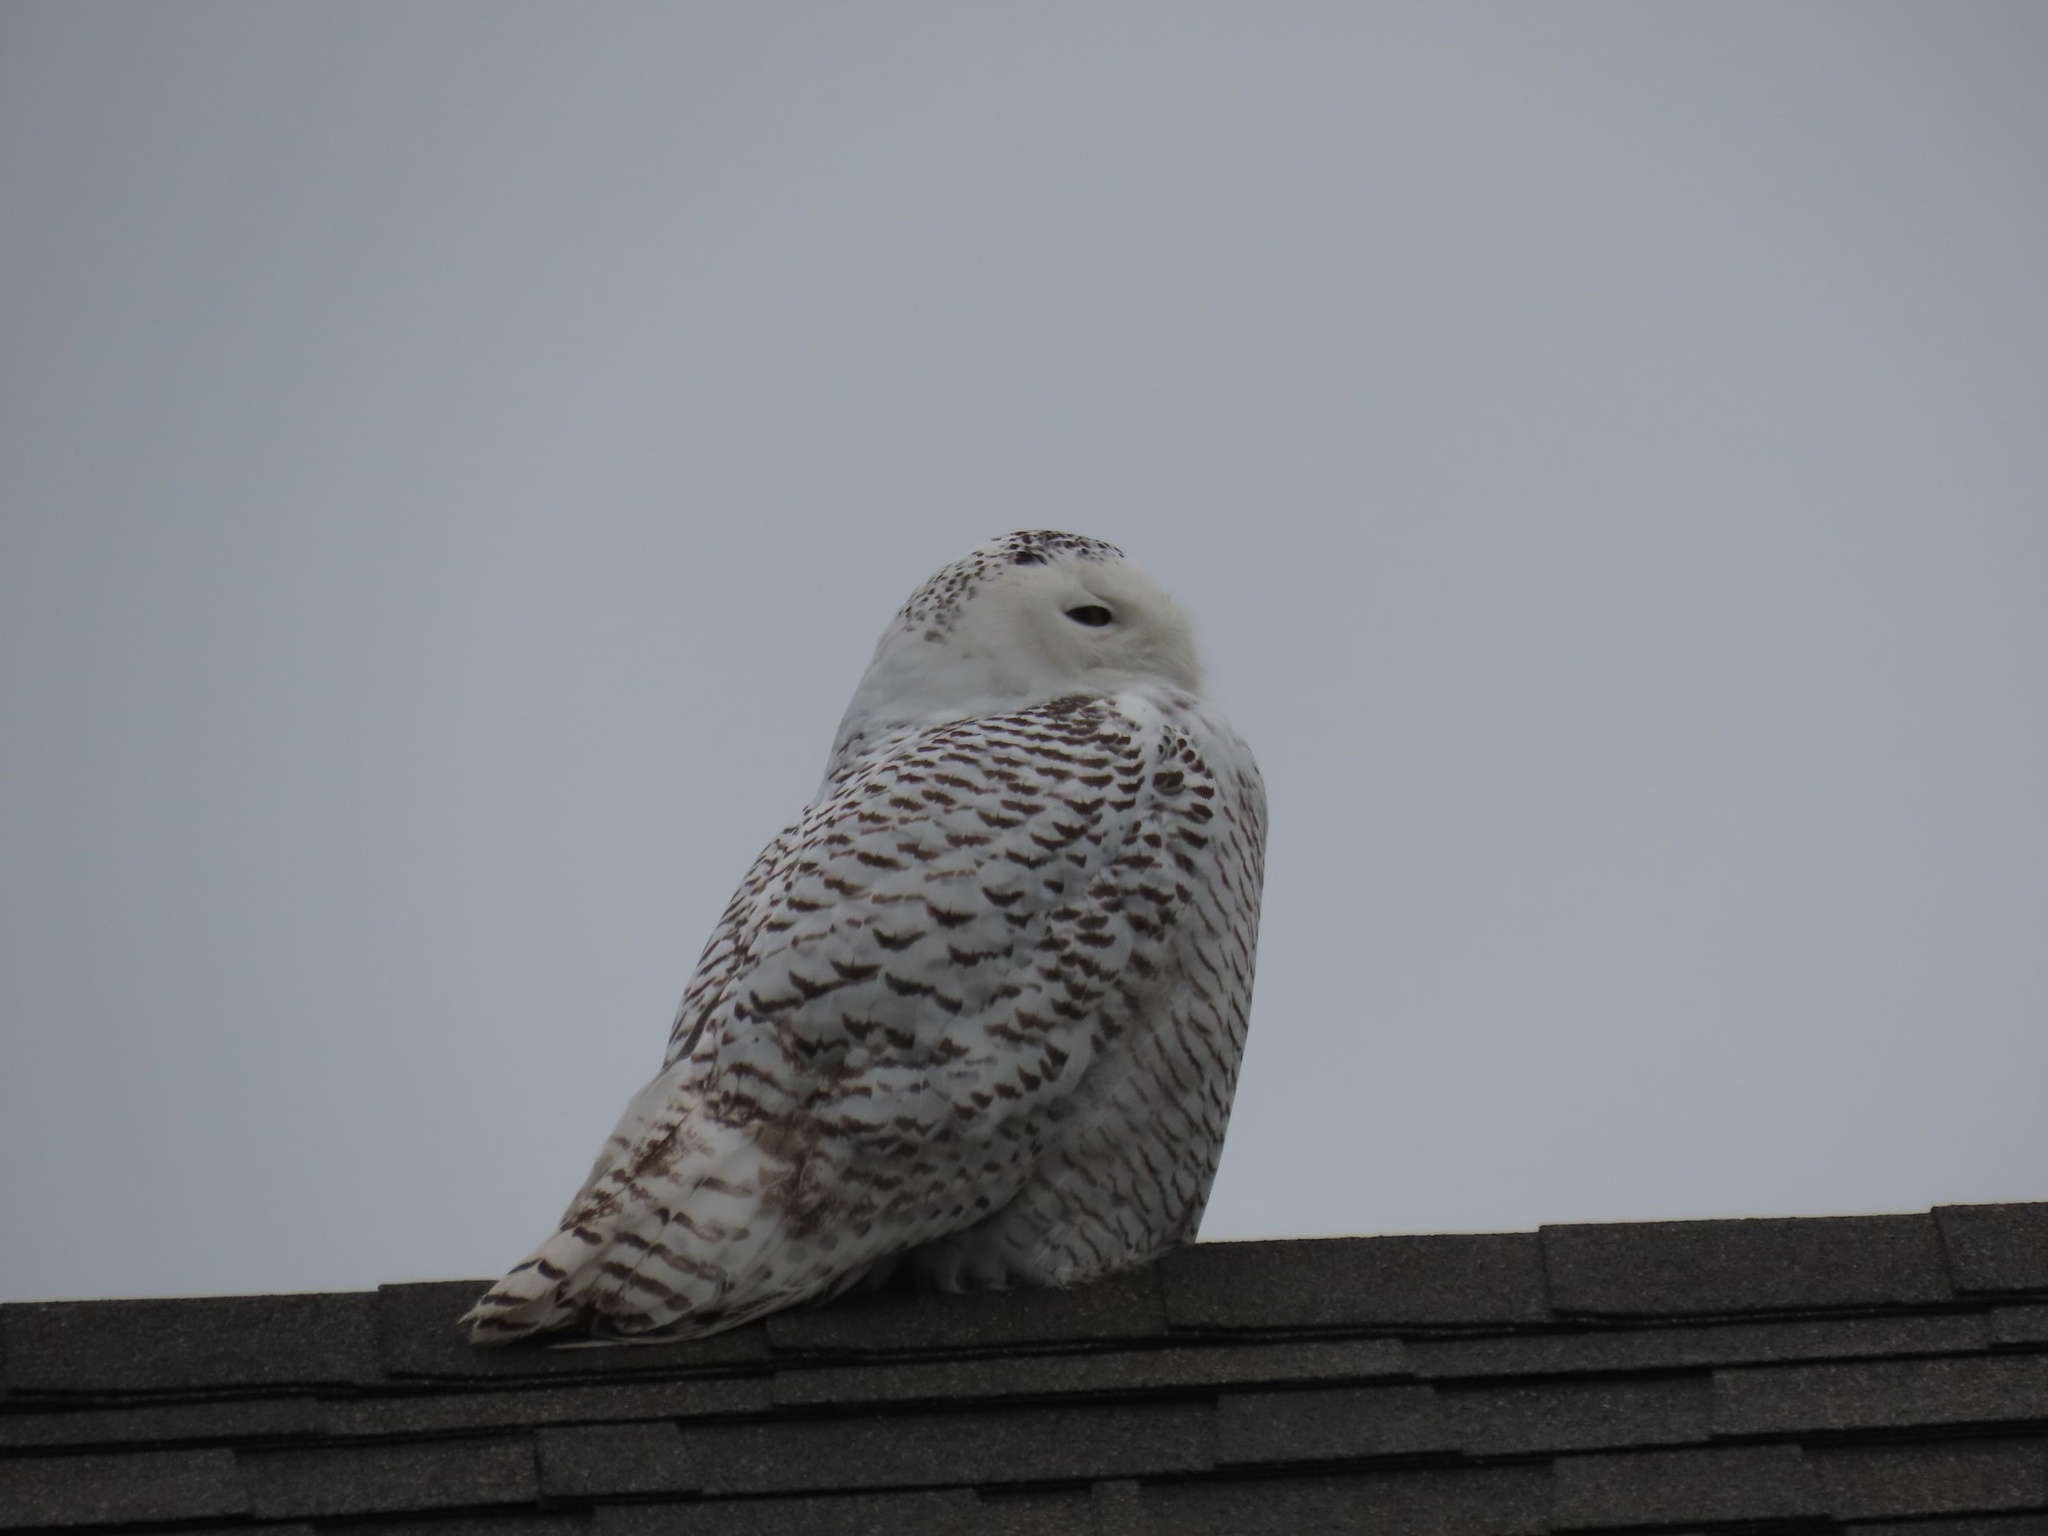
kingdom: Animalia
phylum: Chordata
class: Aves
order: Strigiformes
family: Strigidae
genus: Bubo
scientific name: Bubo scandiacus
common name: Snowy owl
